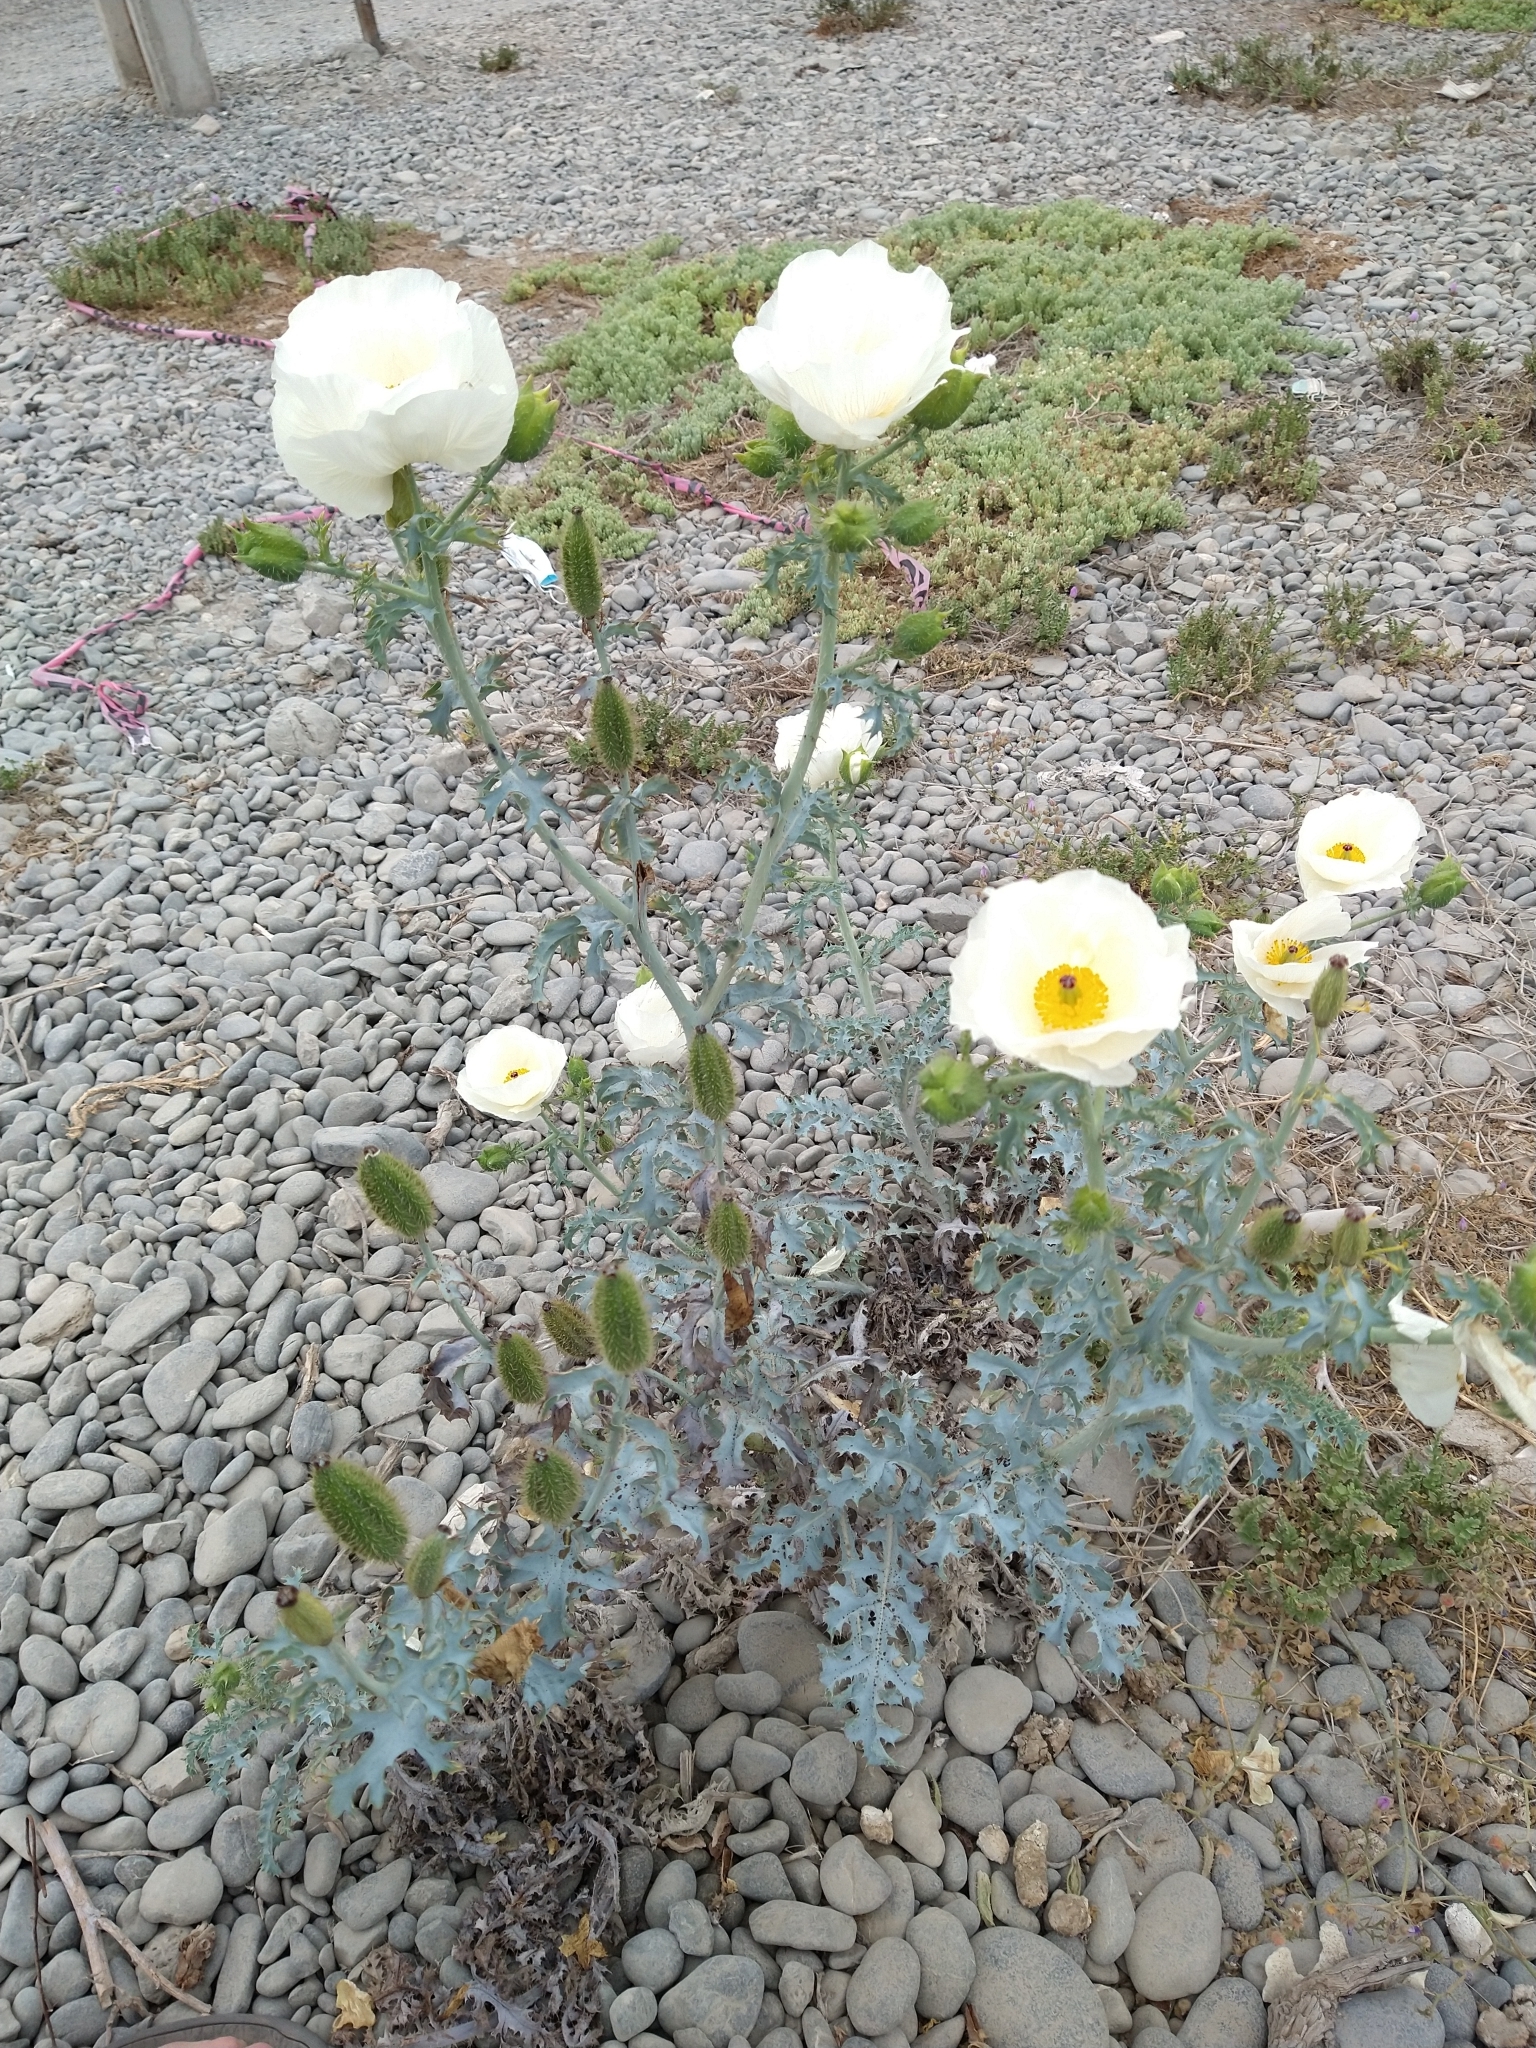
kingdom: Plantae
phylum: Tracheophyta
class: Magnoliopsida
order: Ranunculales
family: Papaveraceae
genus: Argemone
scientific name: Argemone hunnemannii
